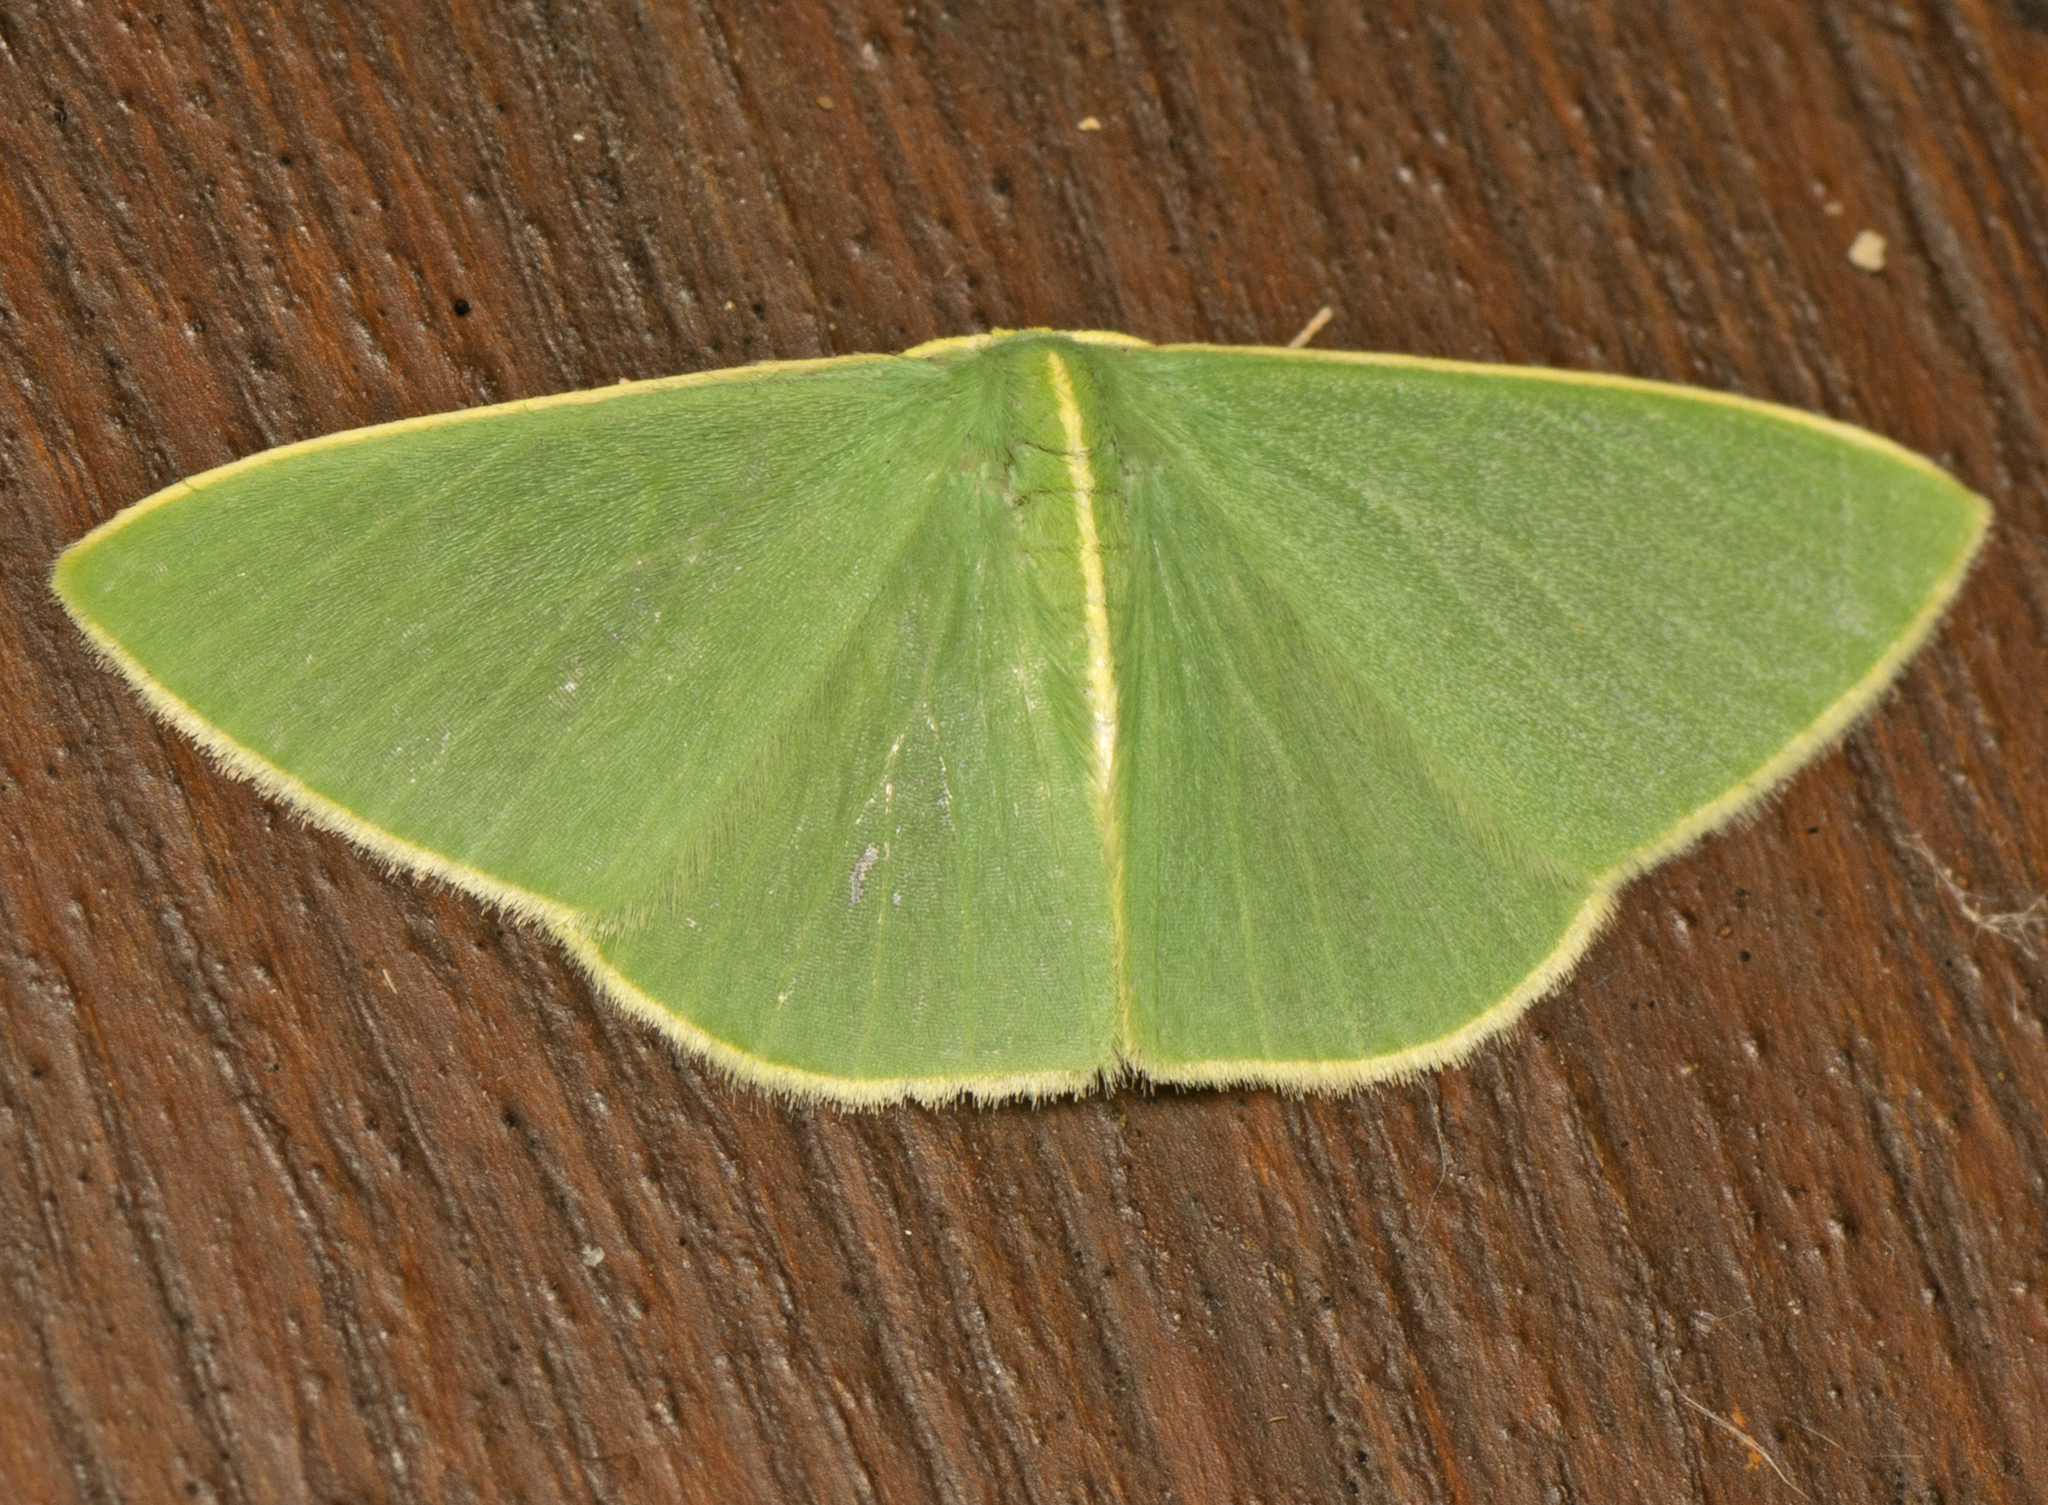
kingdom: Animalia
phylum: Arthropoda
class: Insecta
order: Lepidoptera
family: Geometridae
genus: Comostola
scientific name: Comostola
